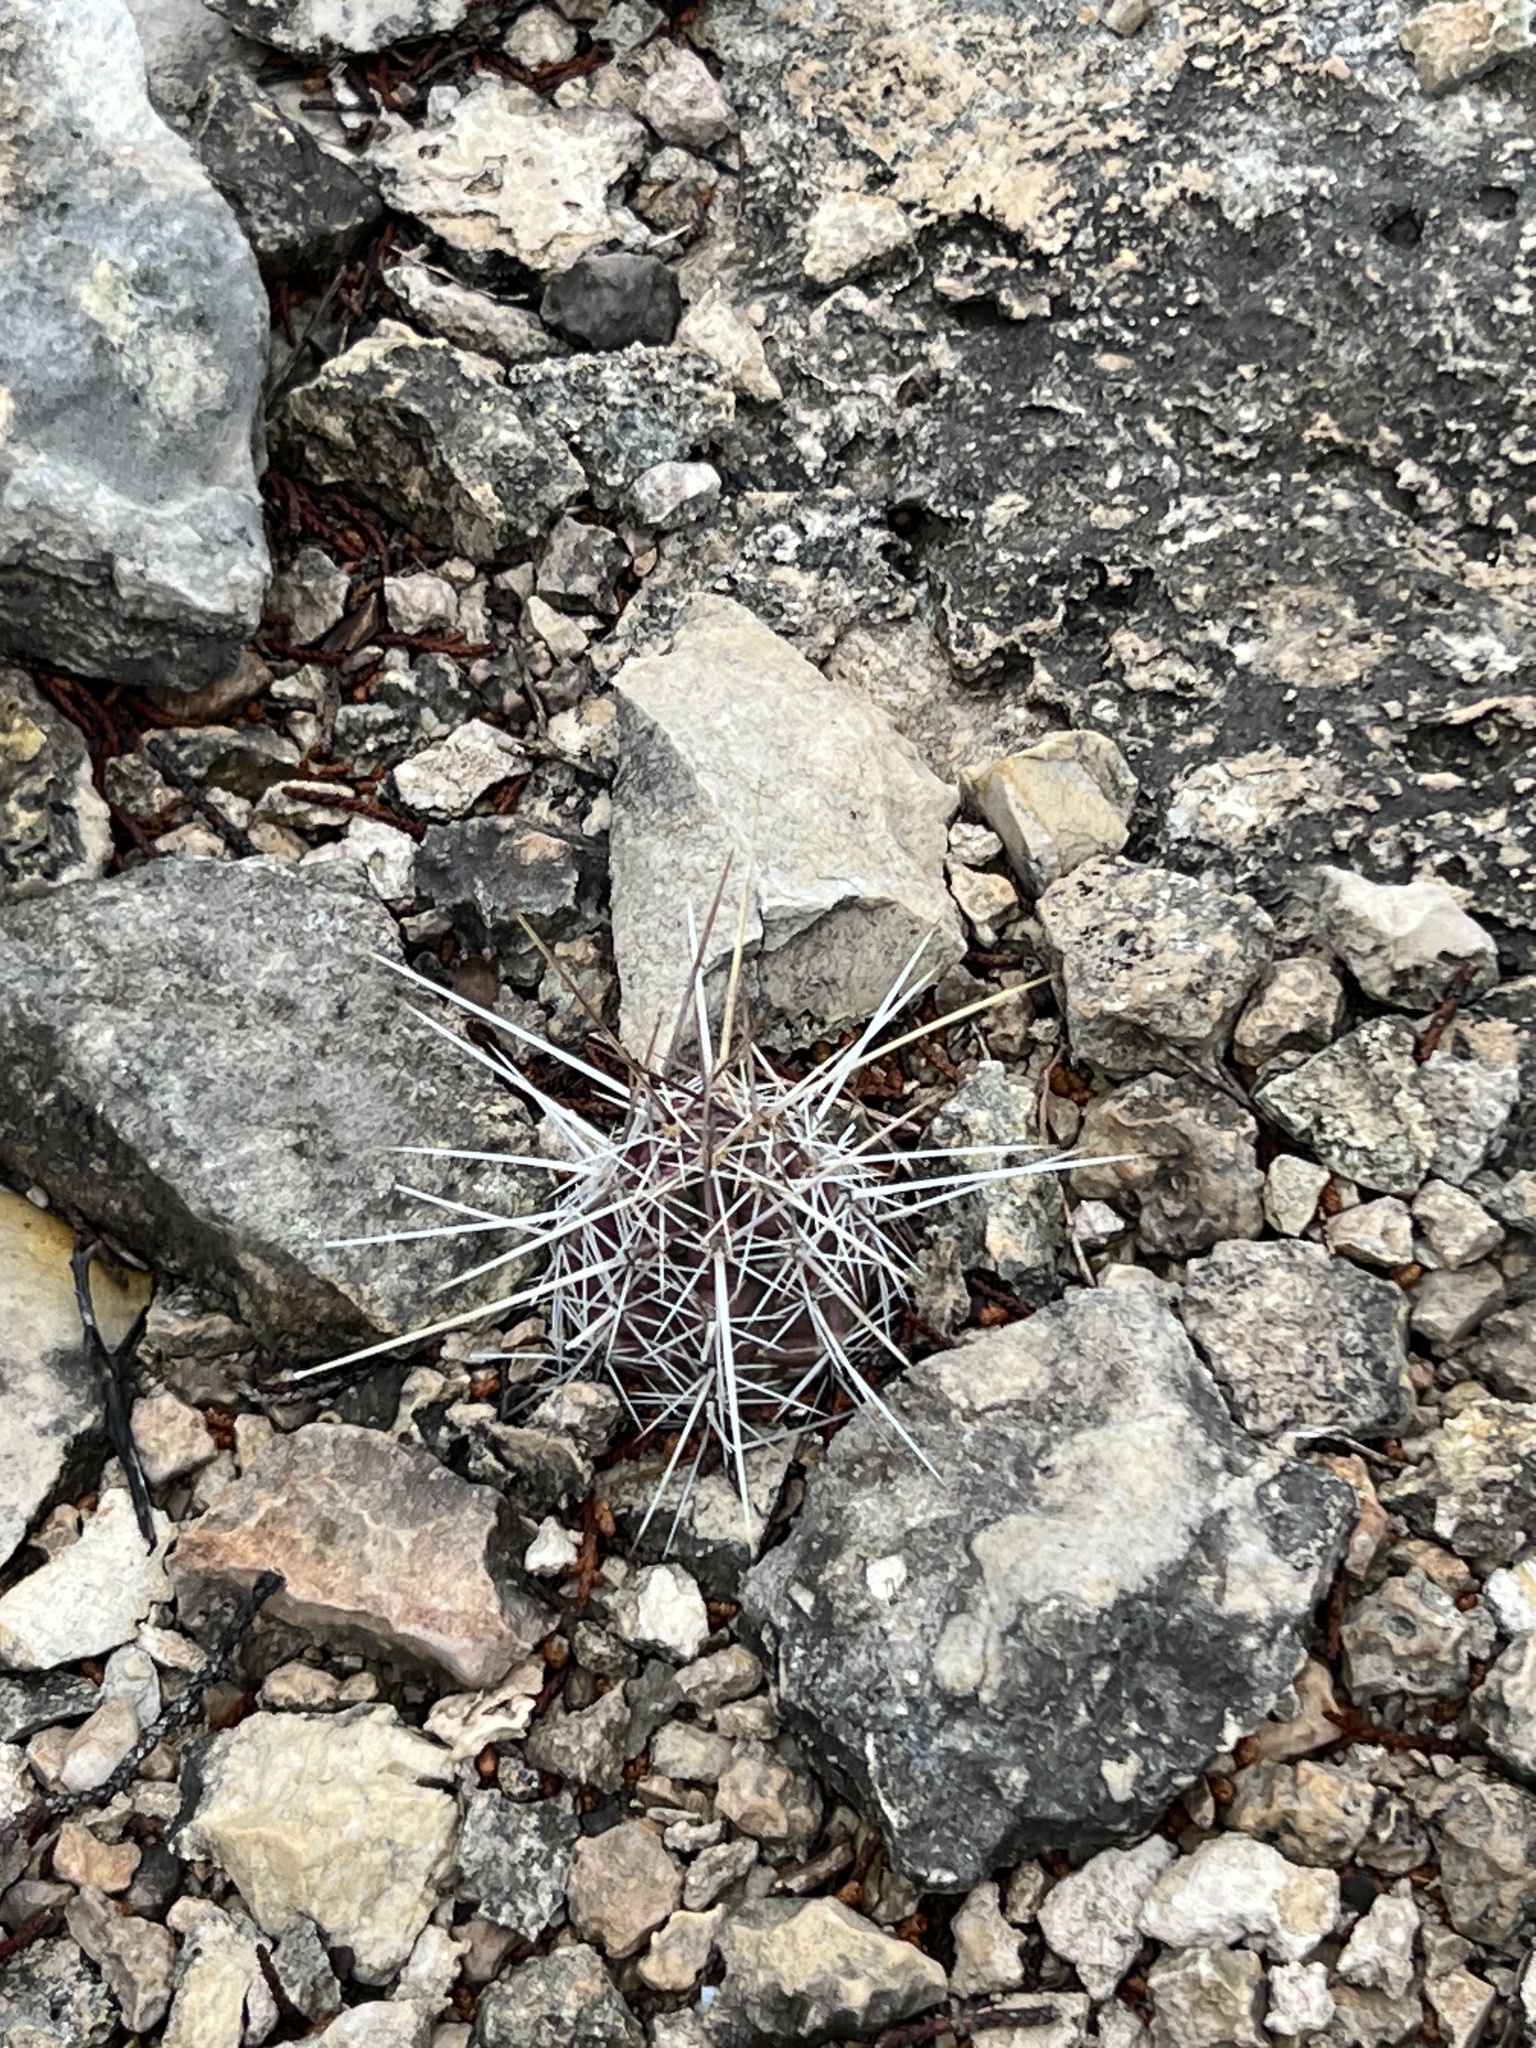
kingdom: Plantae
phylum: Tracheophyta
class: Magnoliopsida
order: Caryophyllales
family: Cactaceae
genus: Echinocereus
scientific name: Echinocereus enneacanthus
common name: Pitaya
